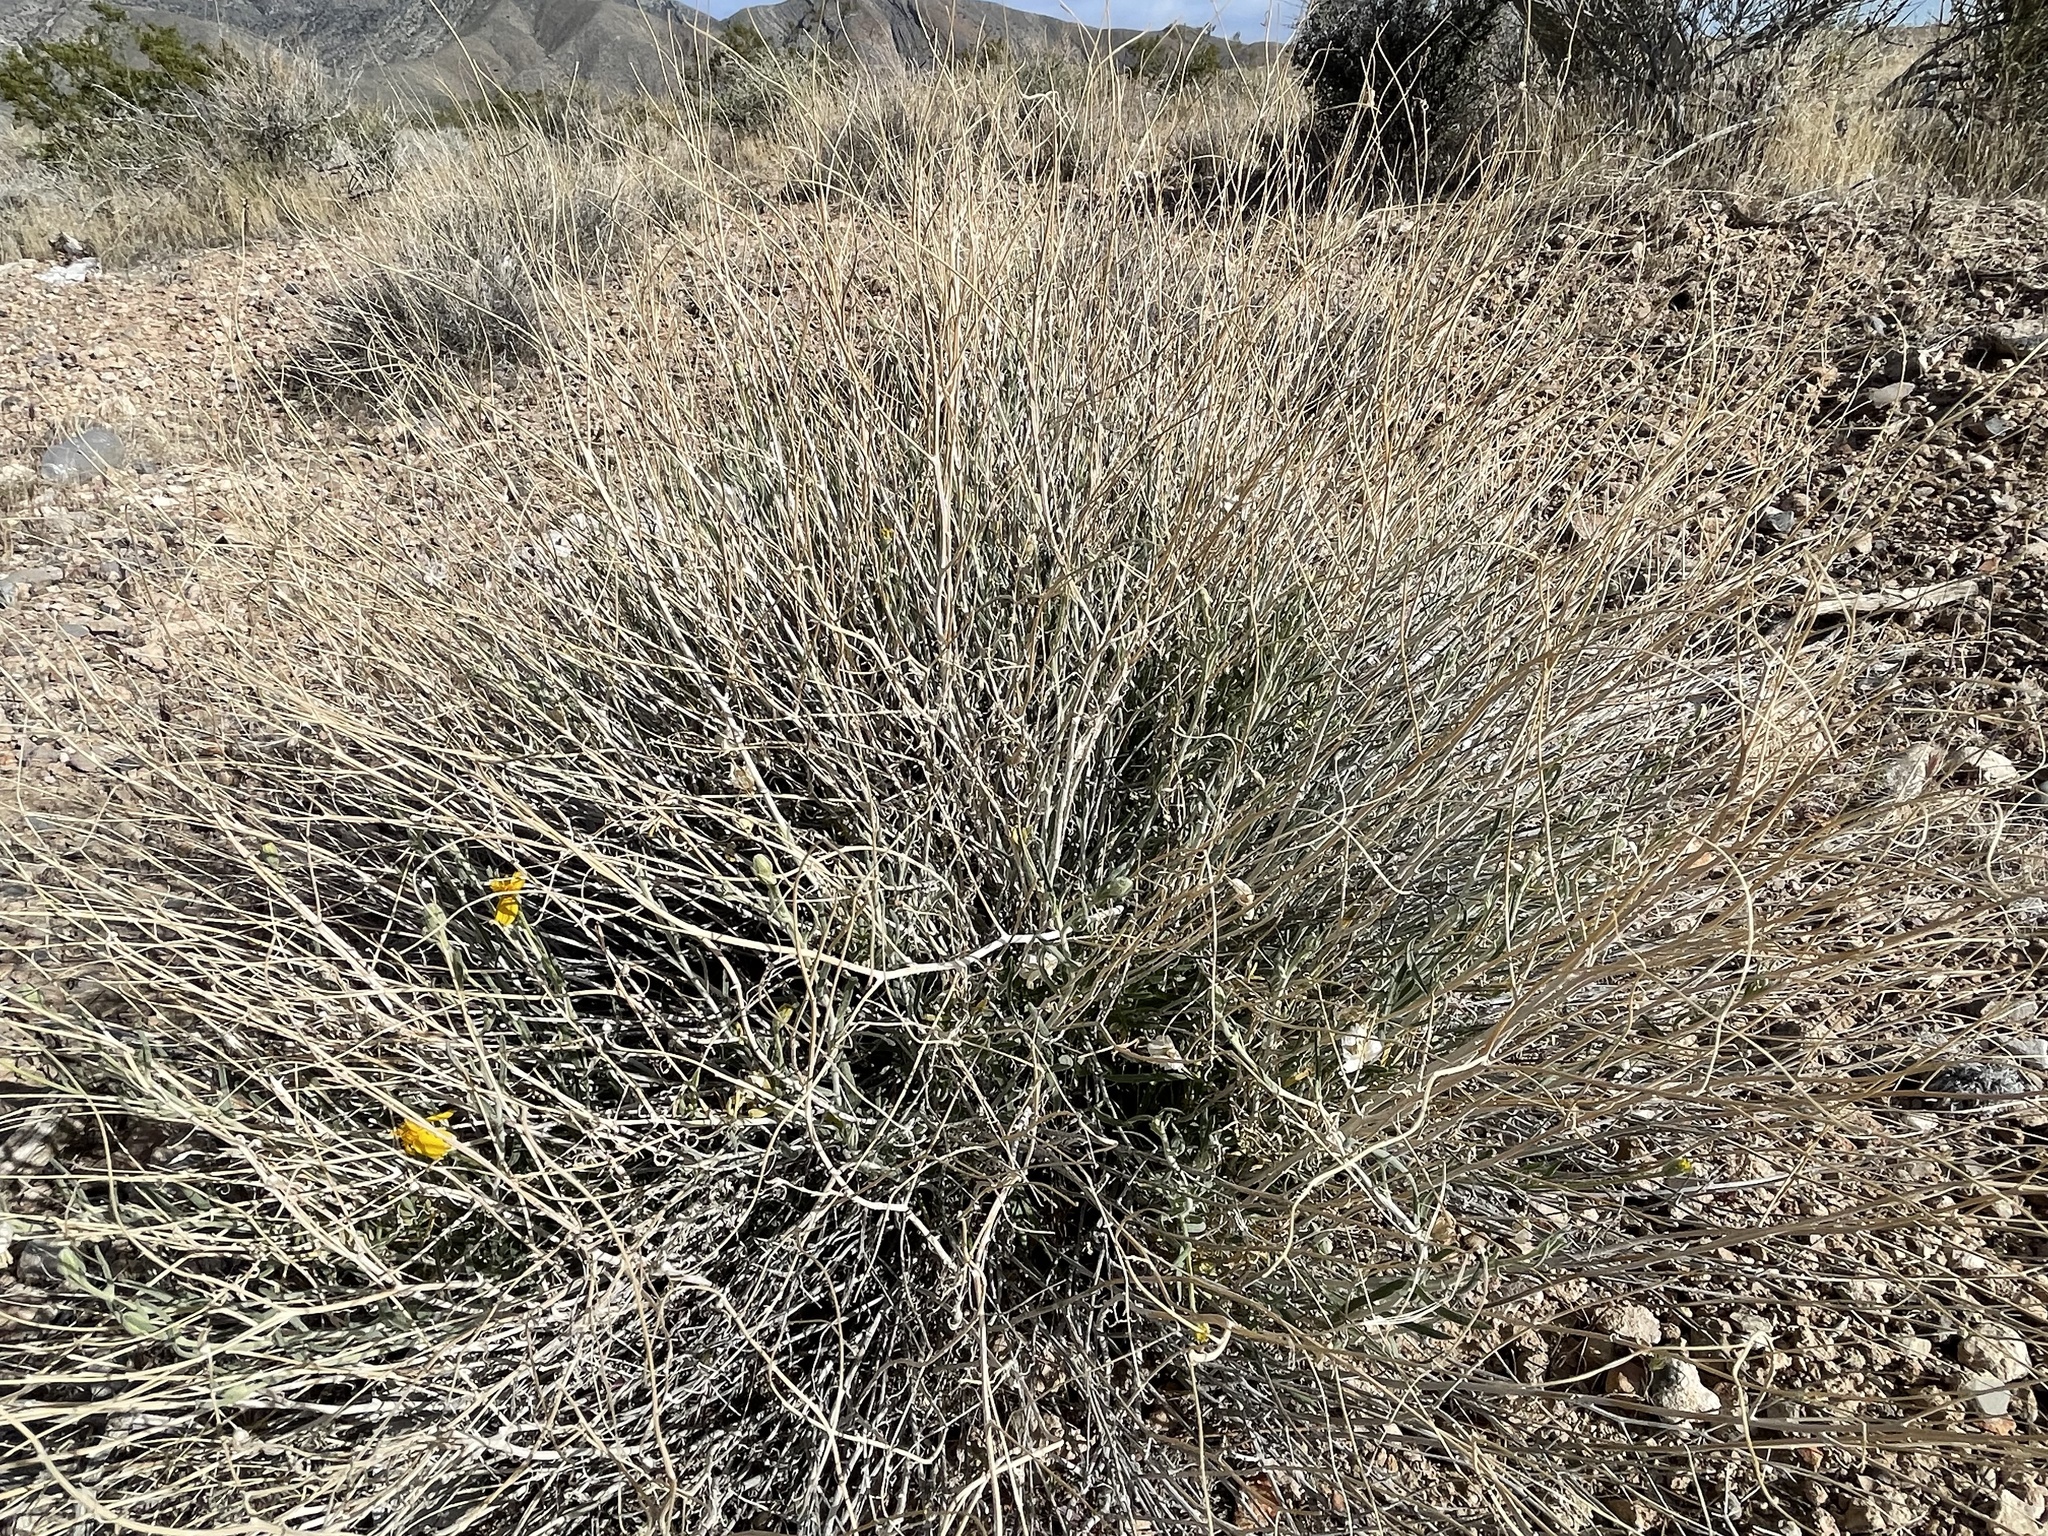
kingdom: Plantae
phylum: Tracheophyta
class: Magnoliopsida
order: Asterales
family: Asteraceae
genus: Psilostrophe
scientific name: Psilostrophe cooperi
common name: White-stem paper-flower
